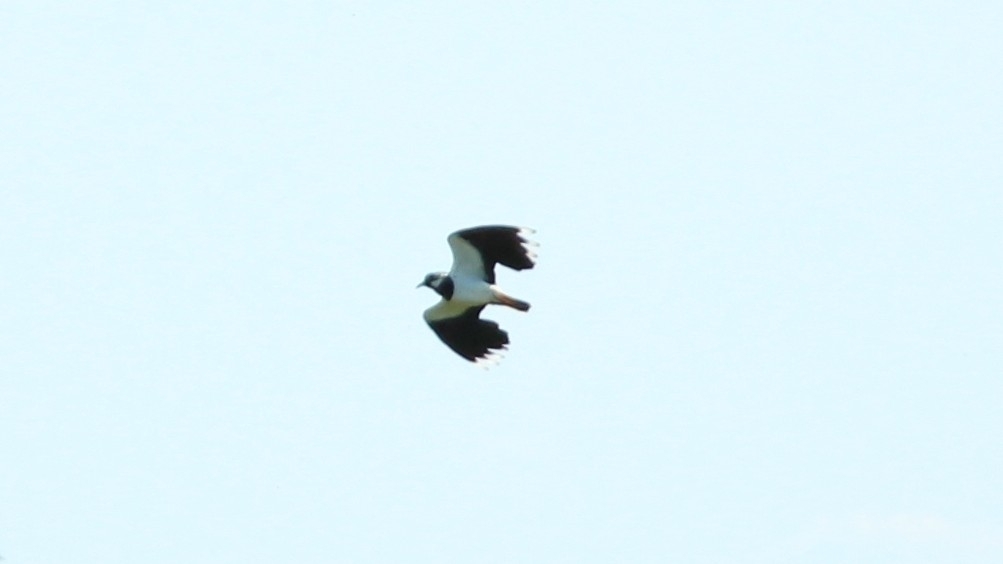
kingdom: Animalia
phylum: Chordata
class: Aves
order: Charadriiformes
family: Charadriidae
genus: Vanellus
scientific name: Vanellus vanellus
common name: Northern lapwing
